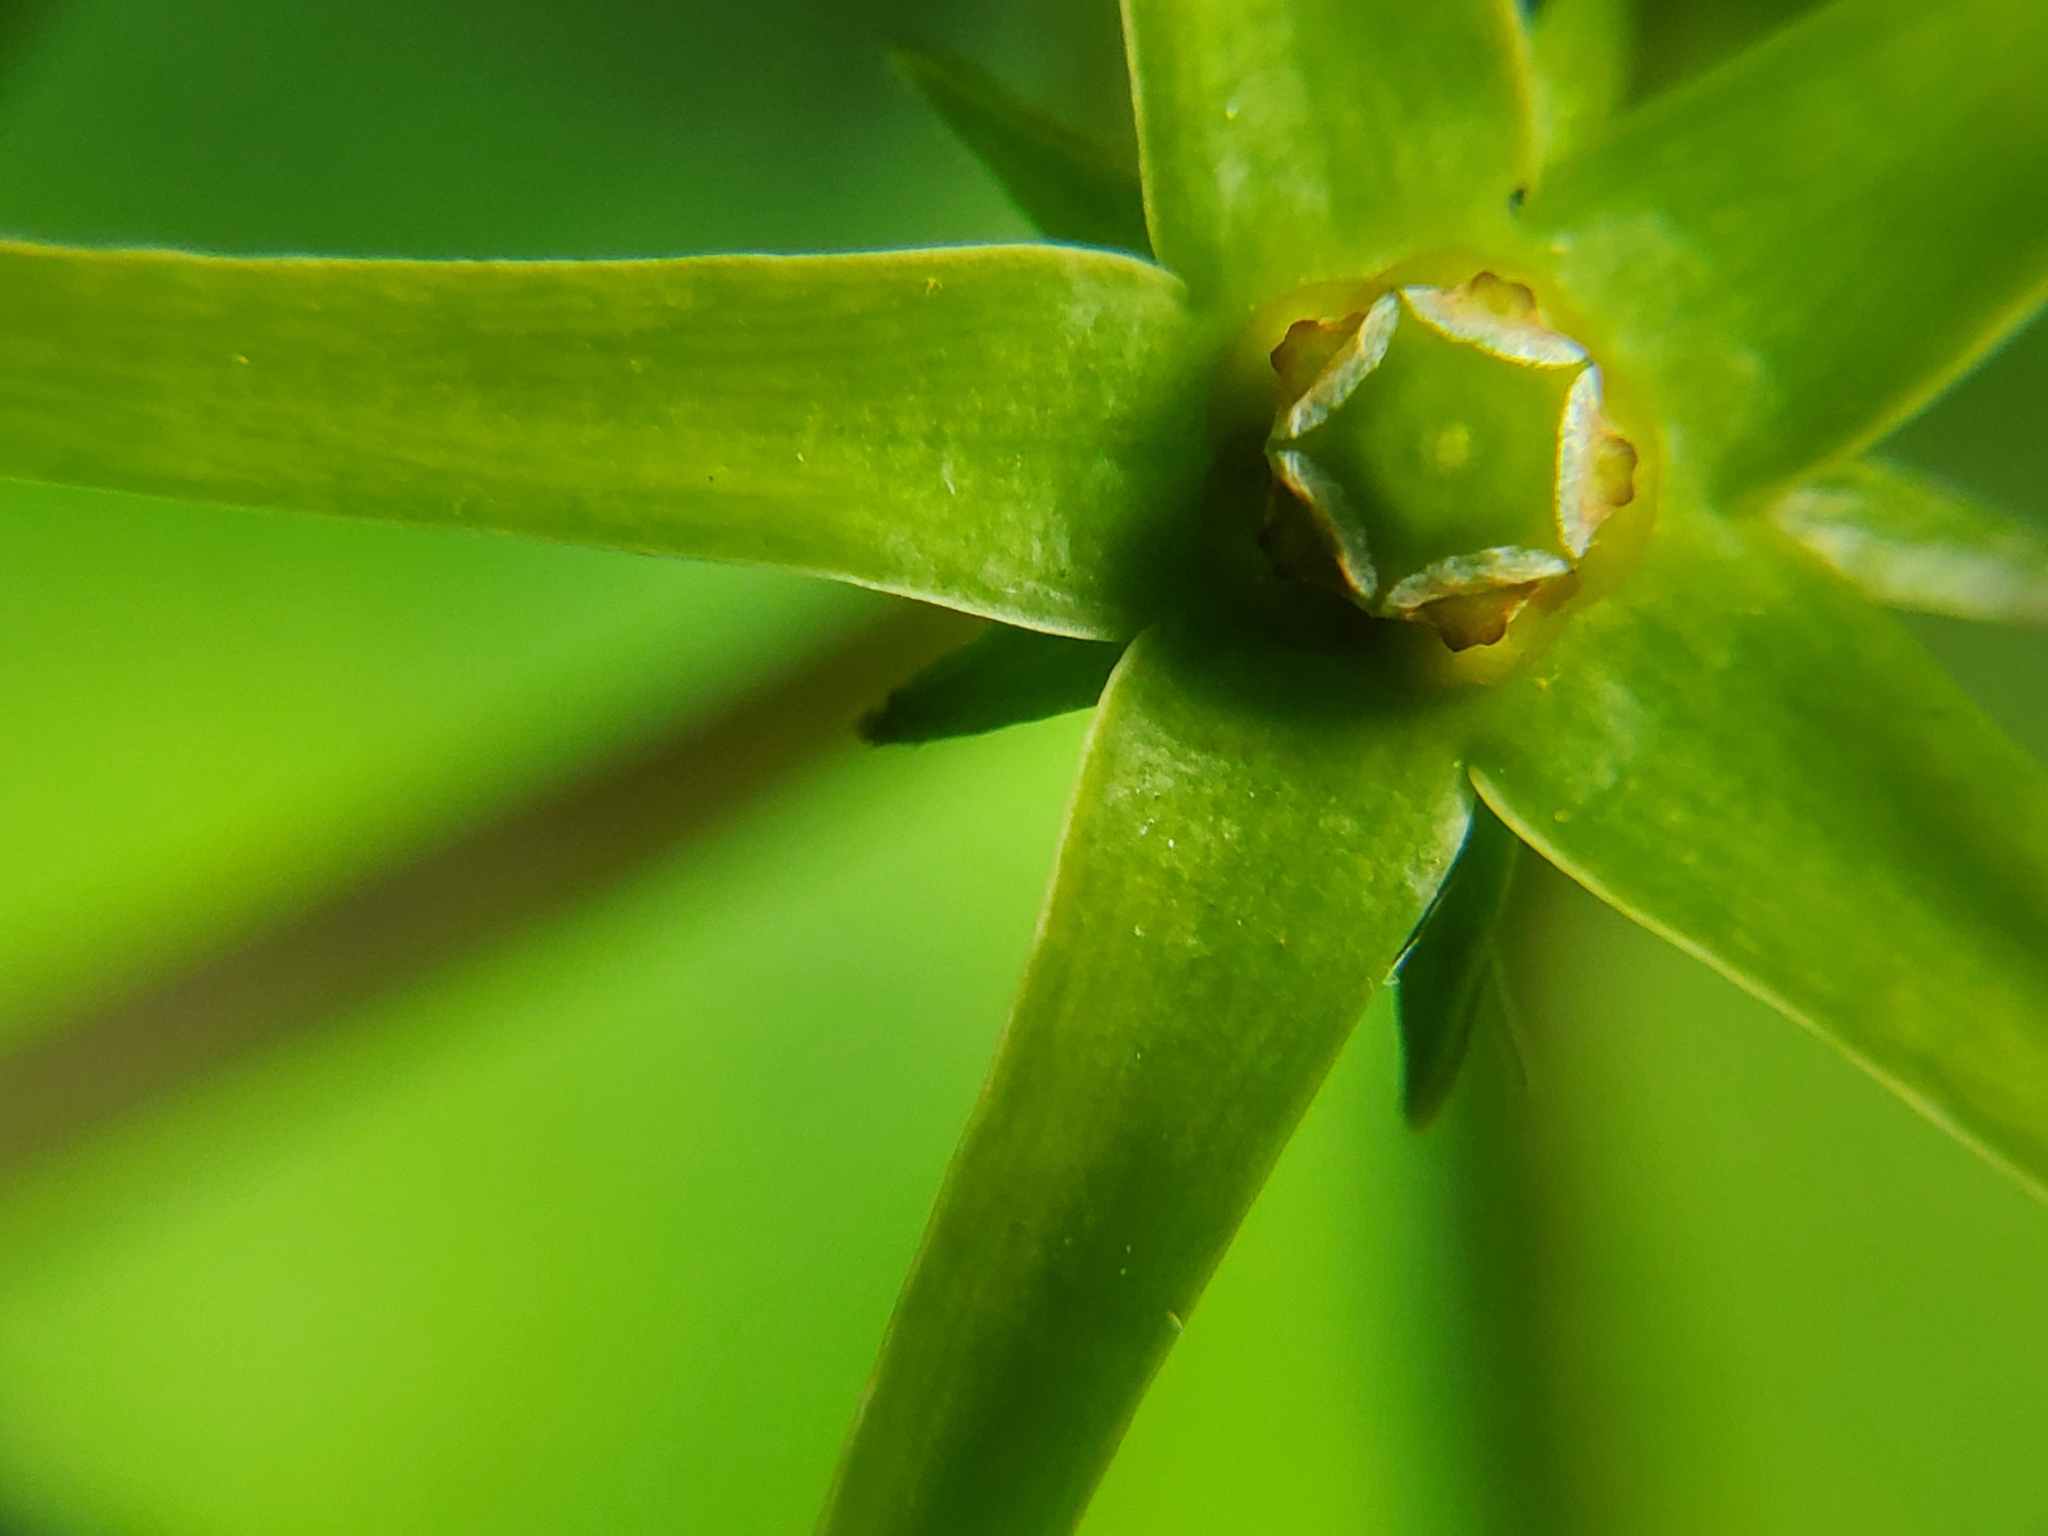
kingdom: Plantae
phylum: Tracheophyta
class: Magnoliopsida
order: Gentianales
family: Apocynaceae
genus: Gonolobus
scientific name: Gonolobus suberosus
